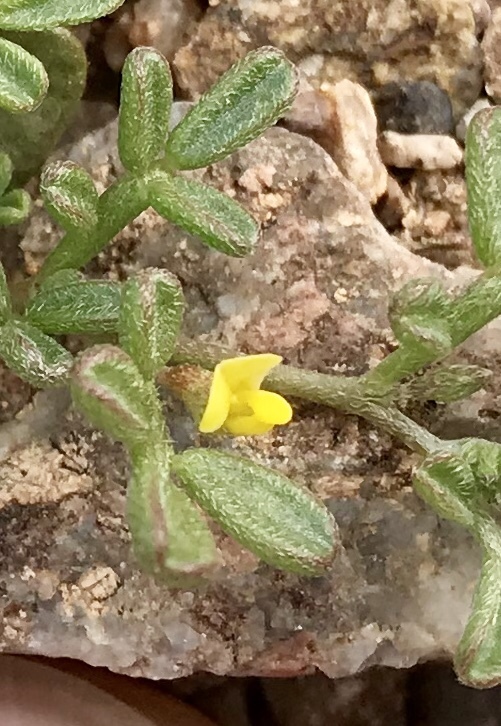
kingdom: Plantae
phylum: Tracheophyta
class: Magnoliopsida
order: Fabales
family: Fabaceae
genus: Acmispon
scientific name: Acmispon strigosus
